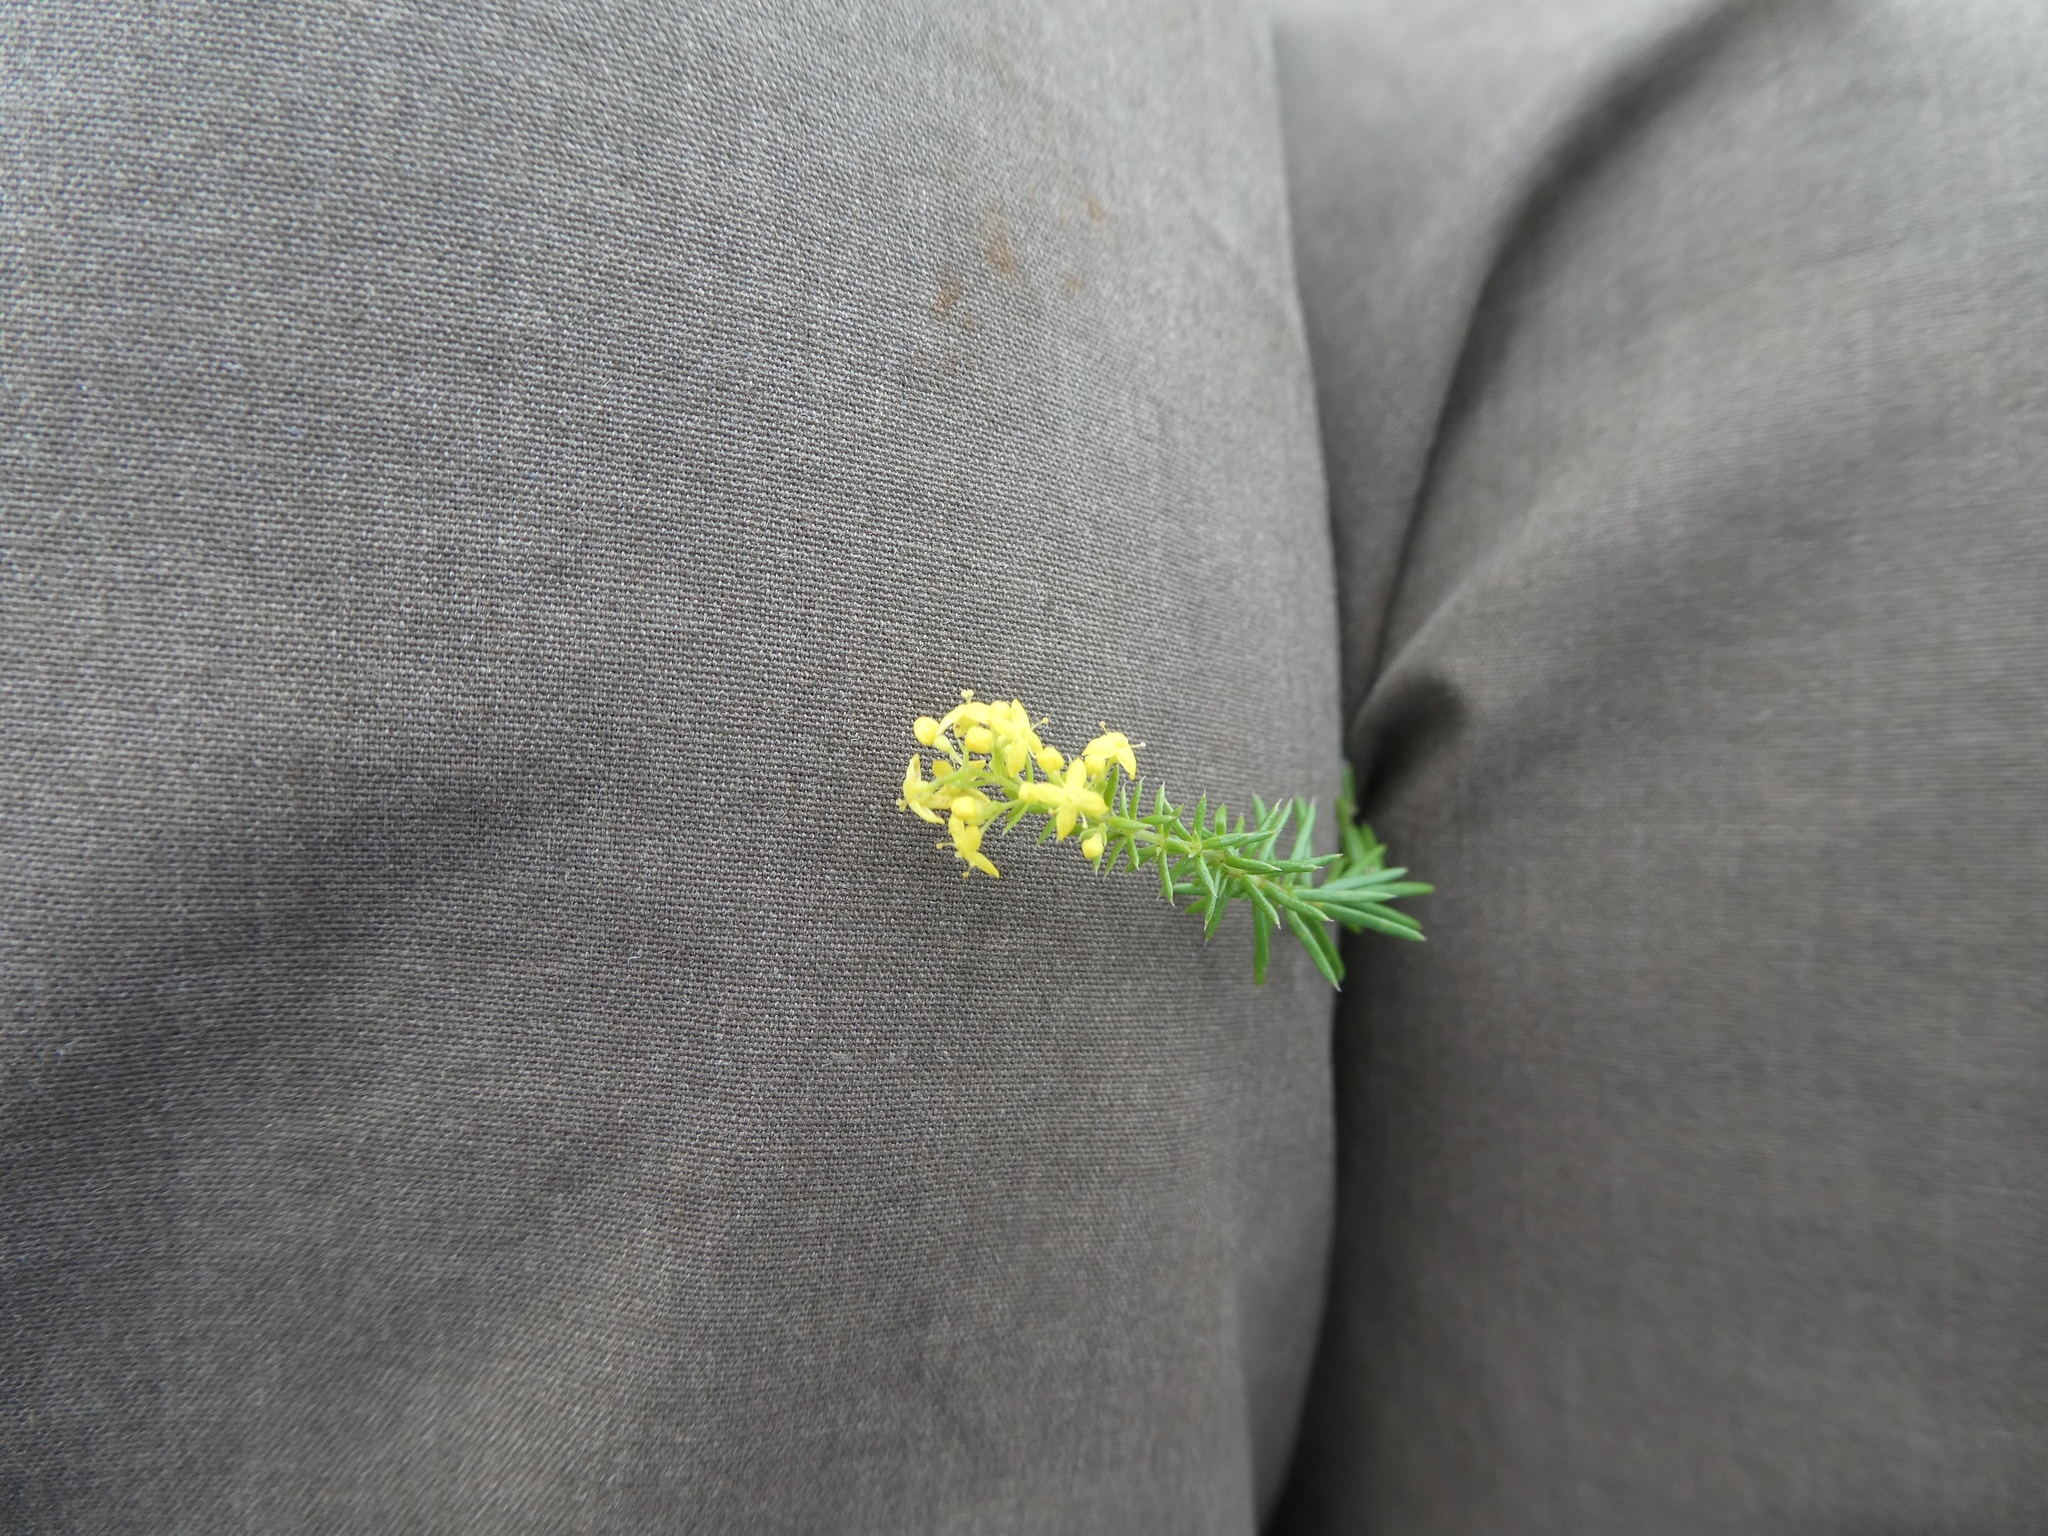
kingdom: Plantae
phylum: Tracheophyta
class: Magnoliopsida
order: Gentianales
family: Rubiaceae
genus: Galium
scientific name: Galium verum
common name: Lady's bedstraw
